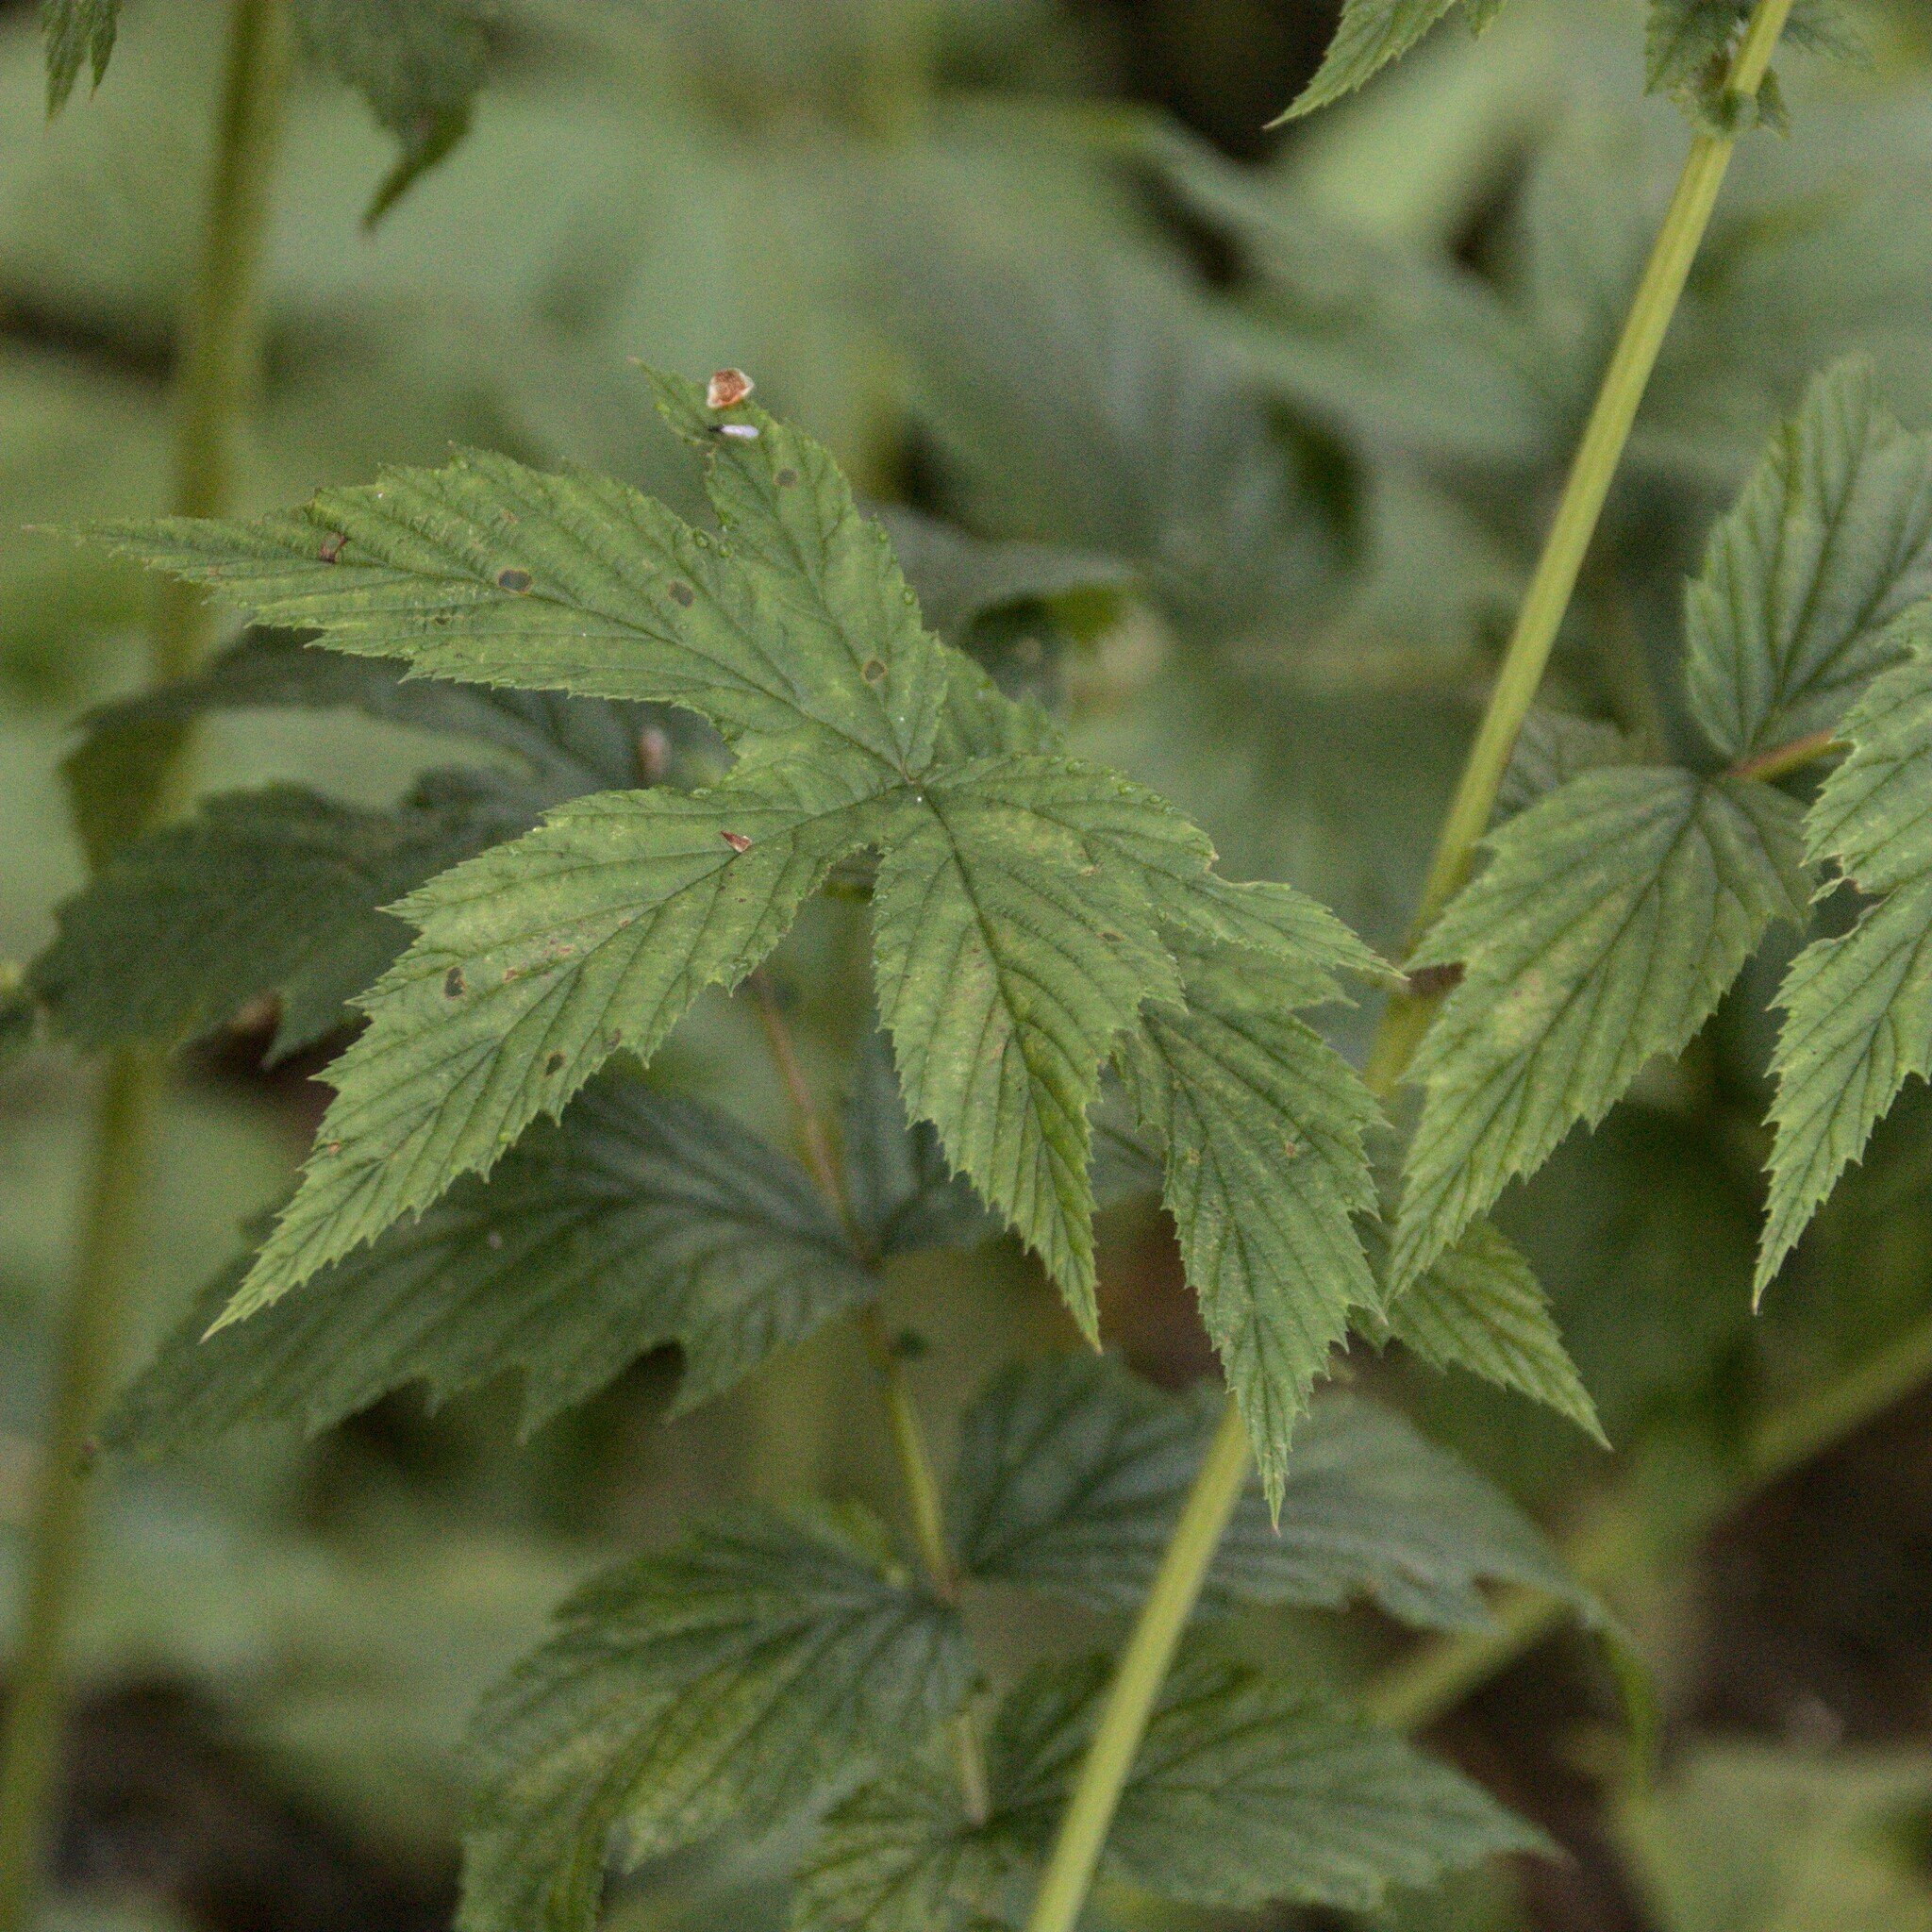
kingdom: Plantae
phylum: Tracheophyta
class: Magnoliopsida
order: Rosales
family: Rosaceae
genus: Filipendula
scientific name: Filipendula ulmaria
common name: Meadowsweet
